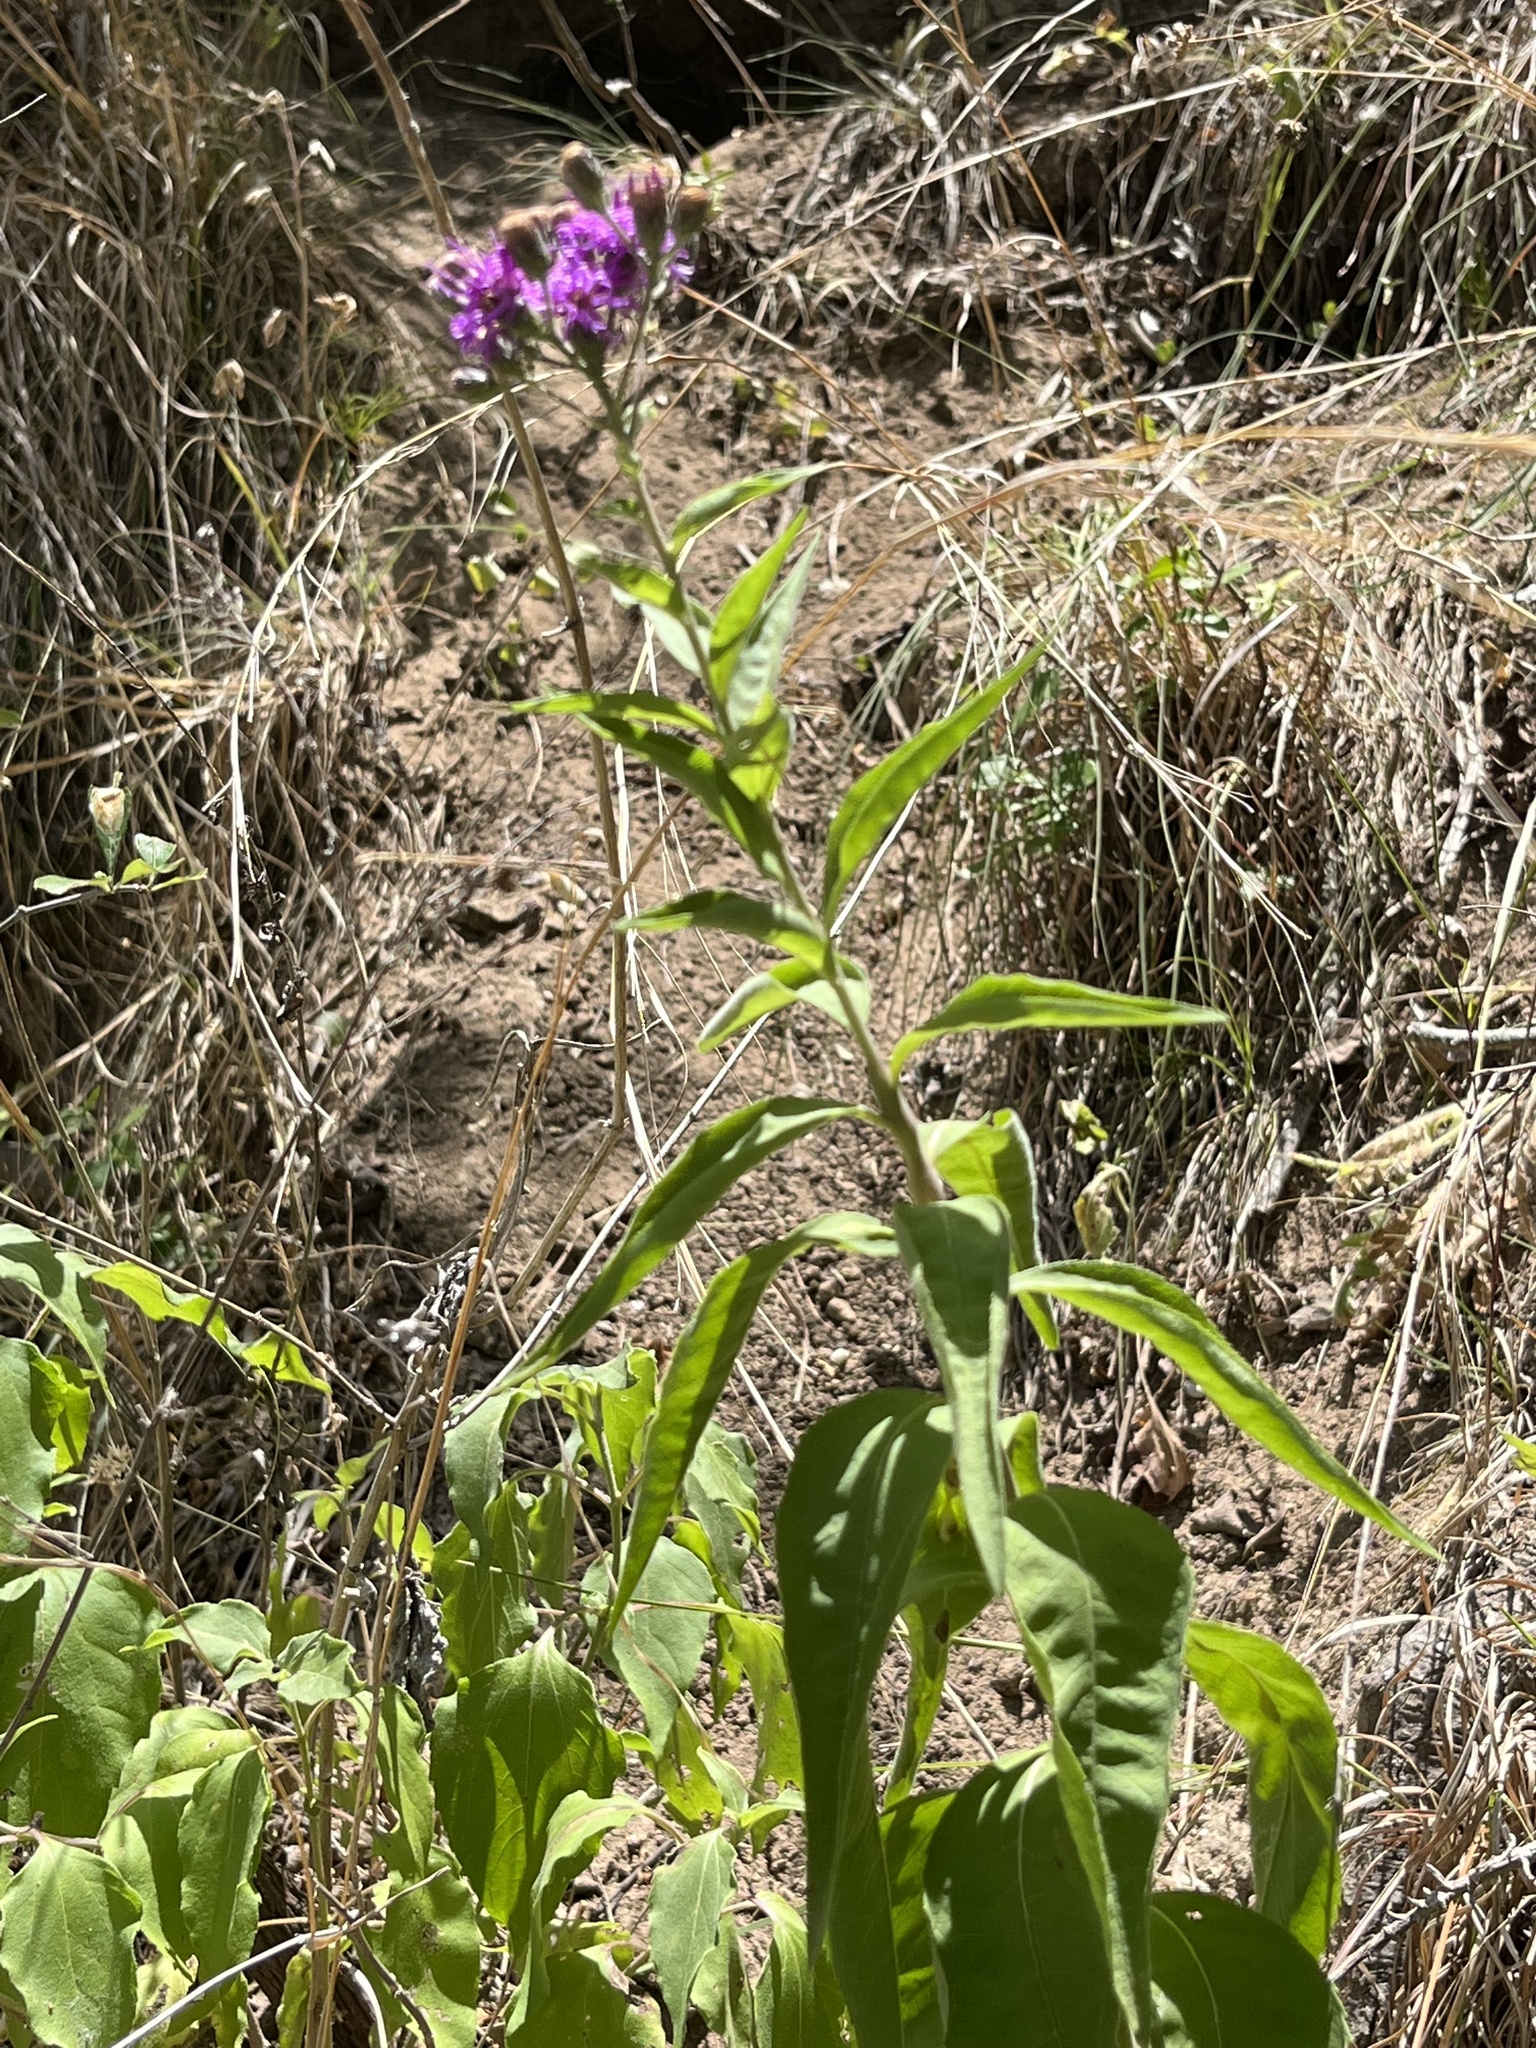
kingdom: Plantae
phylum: Tracheophyta
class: Magnoliopsida
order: Asterales
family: Asteraceae
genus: Vernonia
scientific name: Vernonia baldwinii
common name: Western ironweed
